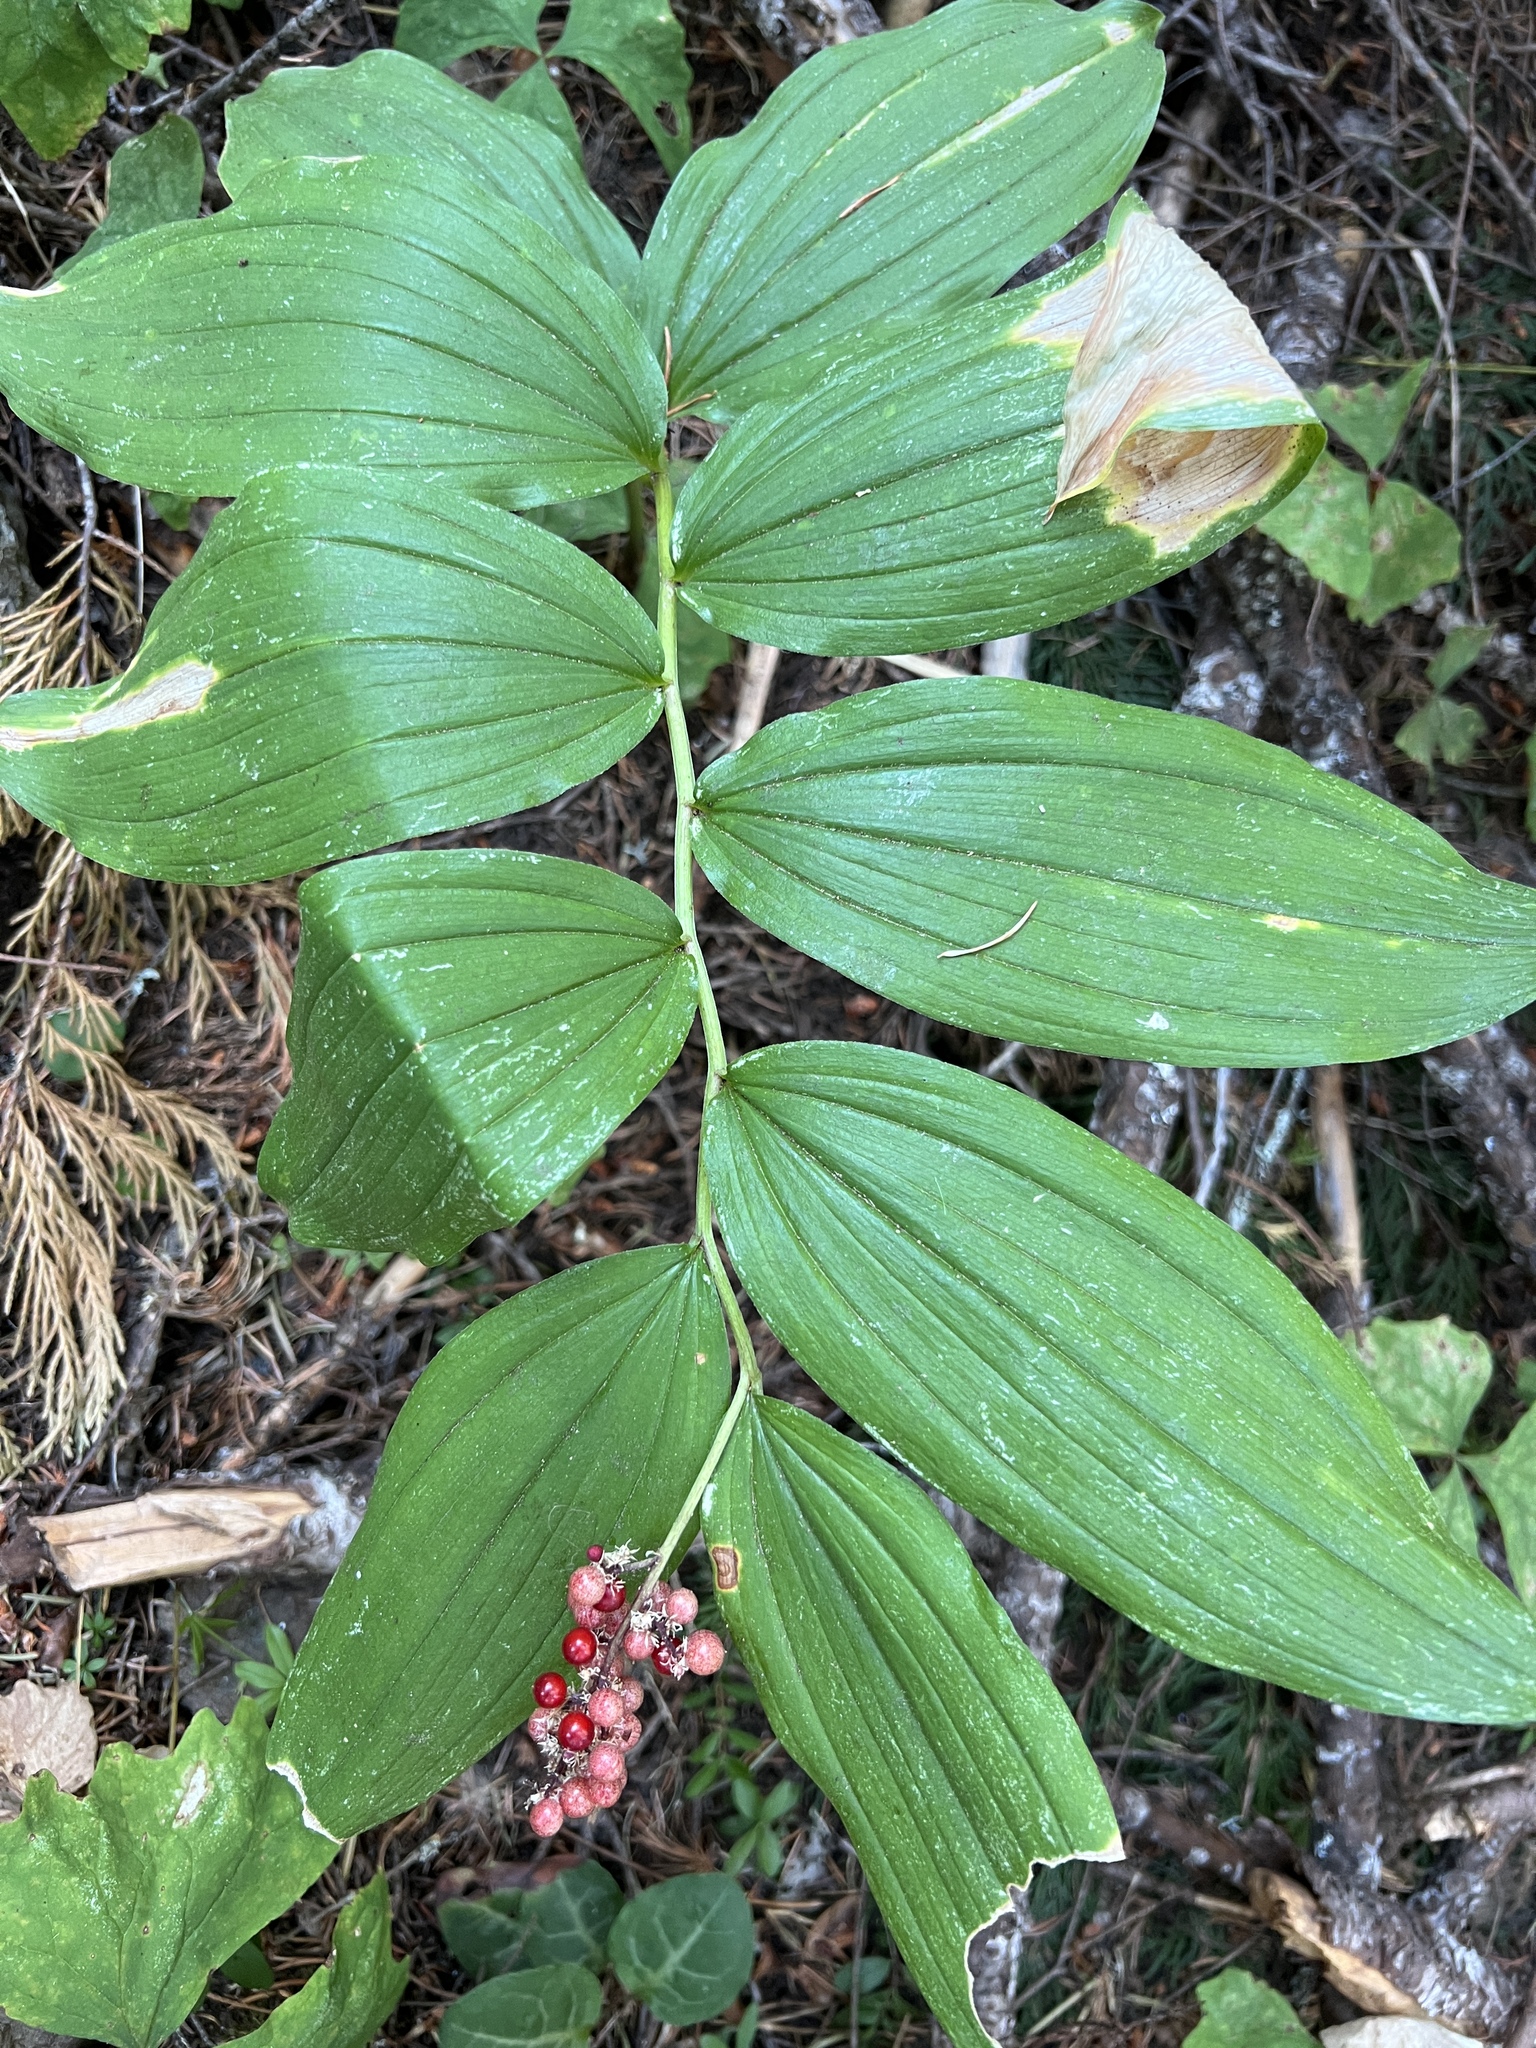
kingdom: Plantae
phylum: Tracheophyta
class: Liliopsida
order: Asparagales
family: Asparagaceae
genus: Maianthemum
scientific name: Maianthemum racemosum
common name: False spikenard
